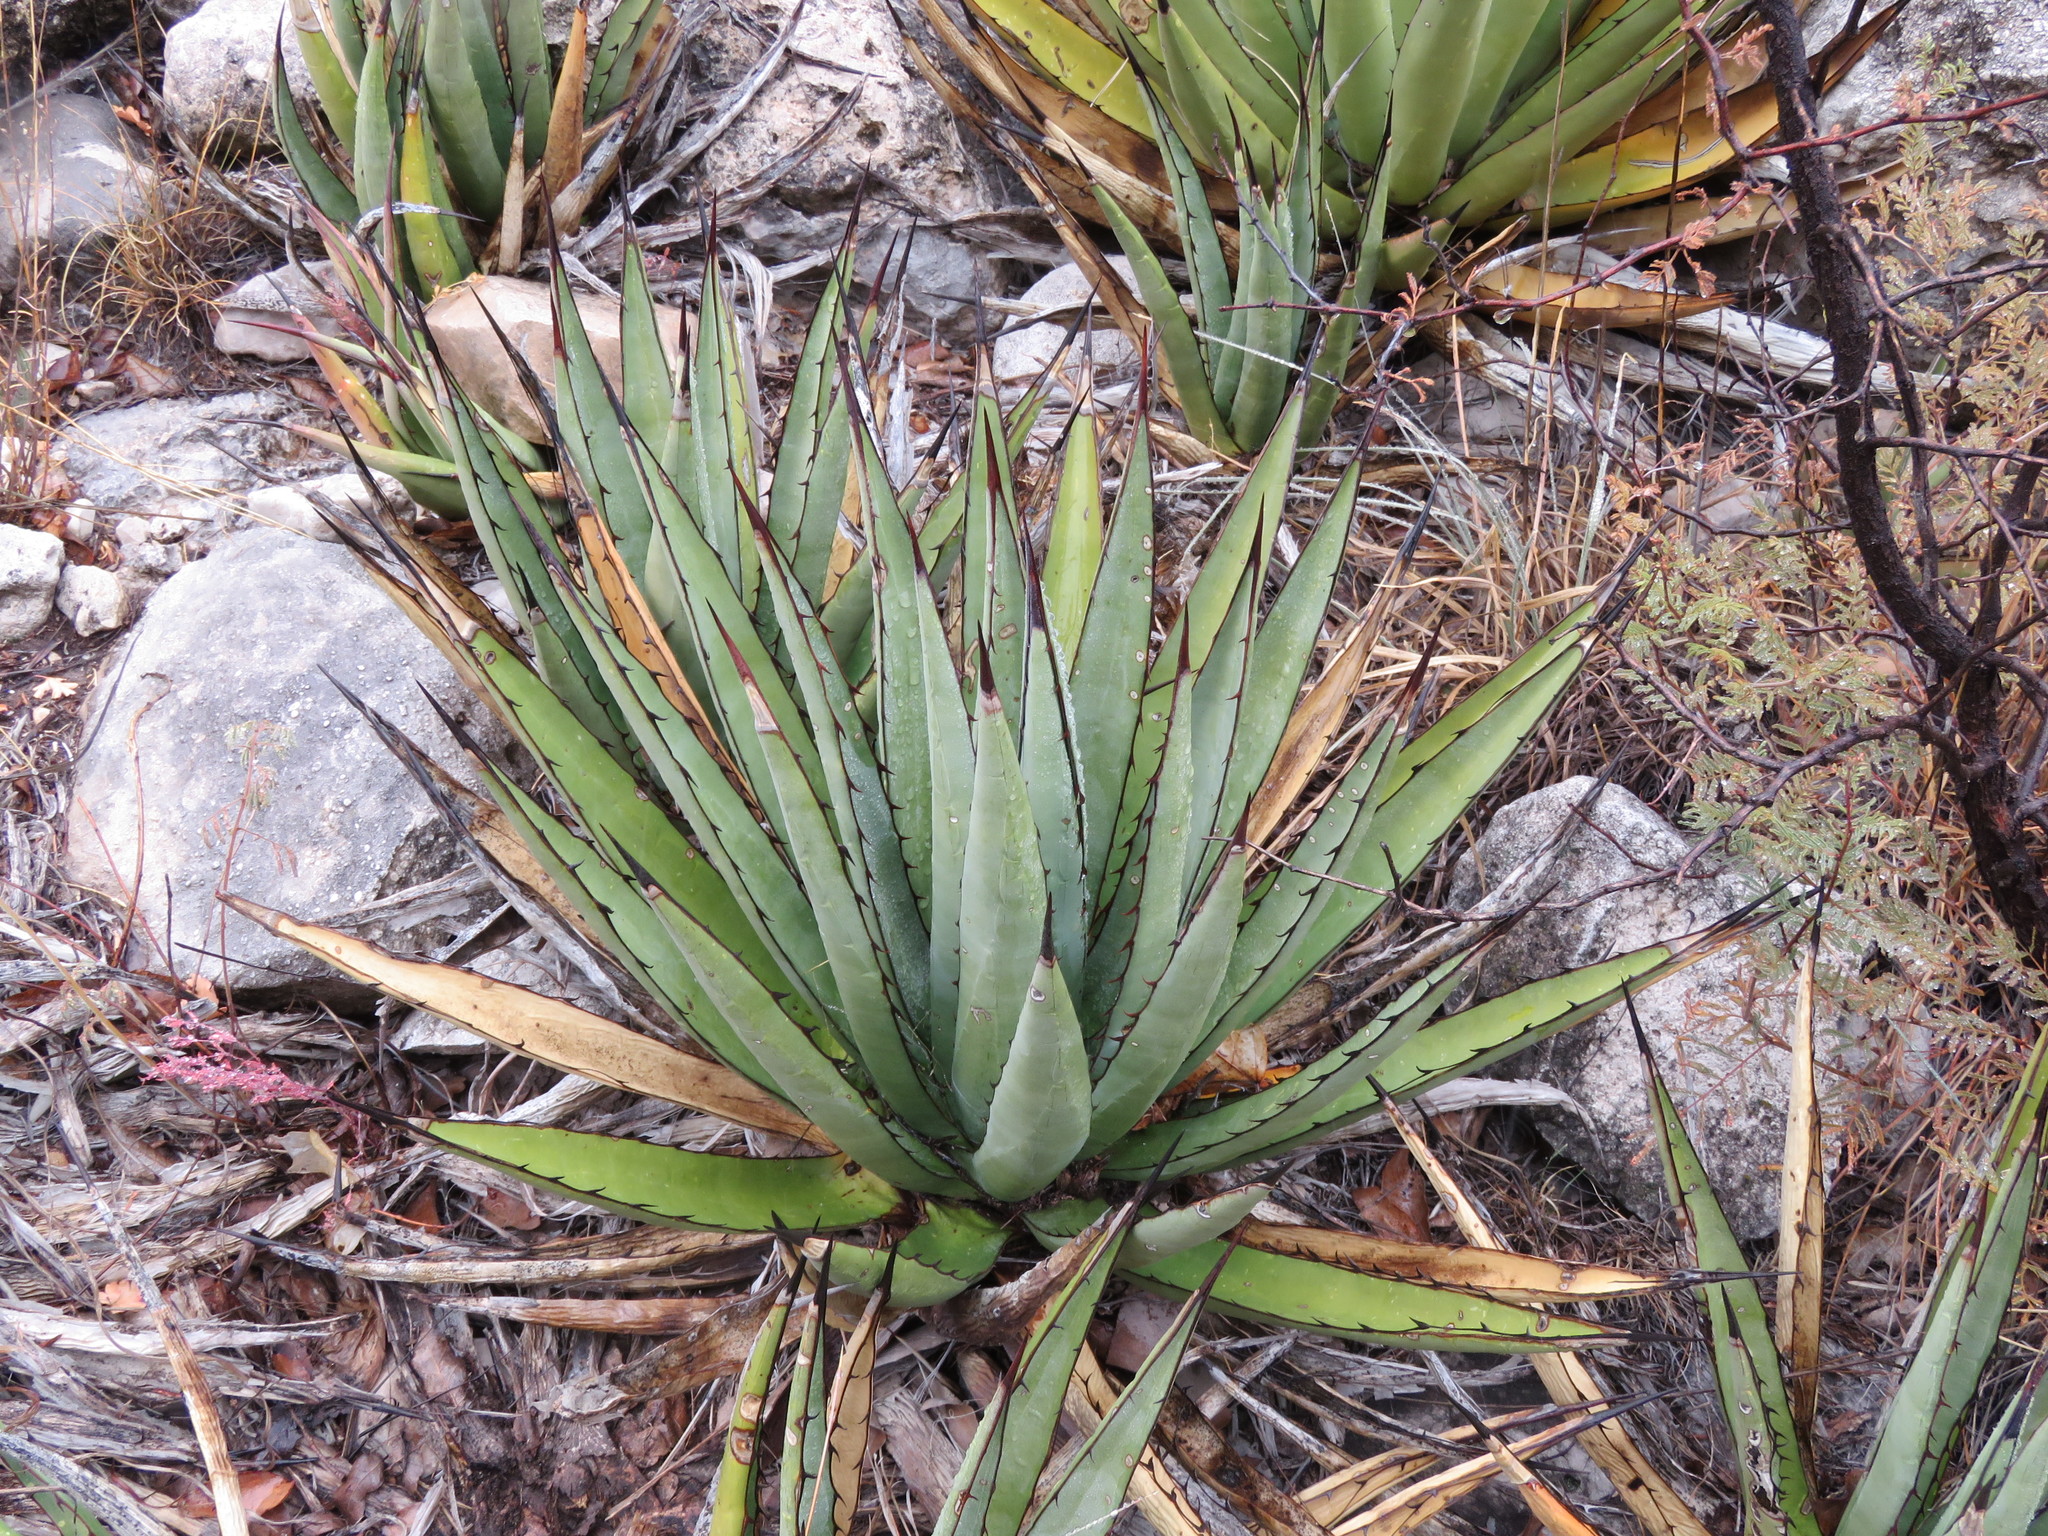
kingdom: Plantae
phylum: Tracheophyta
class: Liliopsida
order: Asparagales
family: Asparagaceae
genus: Agave
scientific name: Agave lechuguilla
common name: Lecheguilla agave
